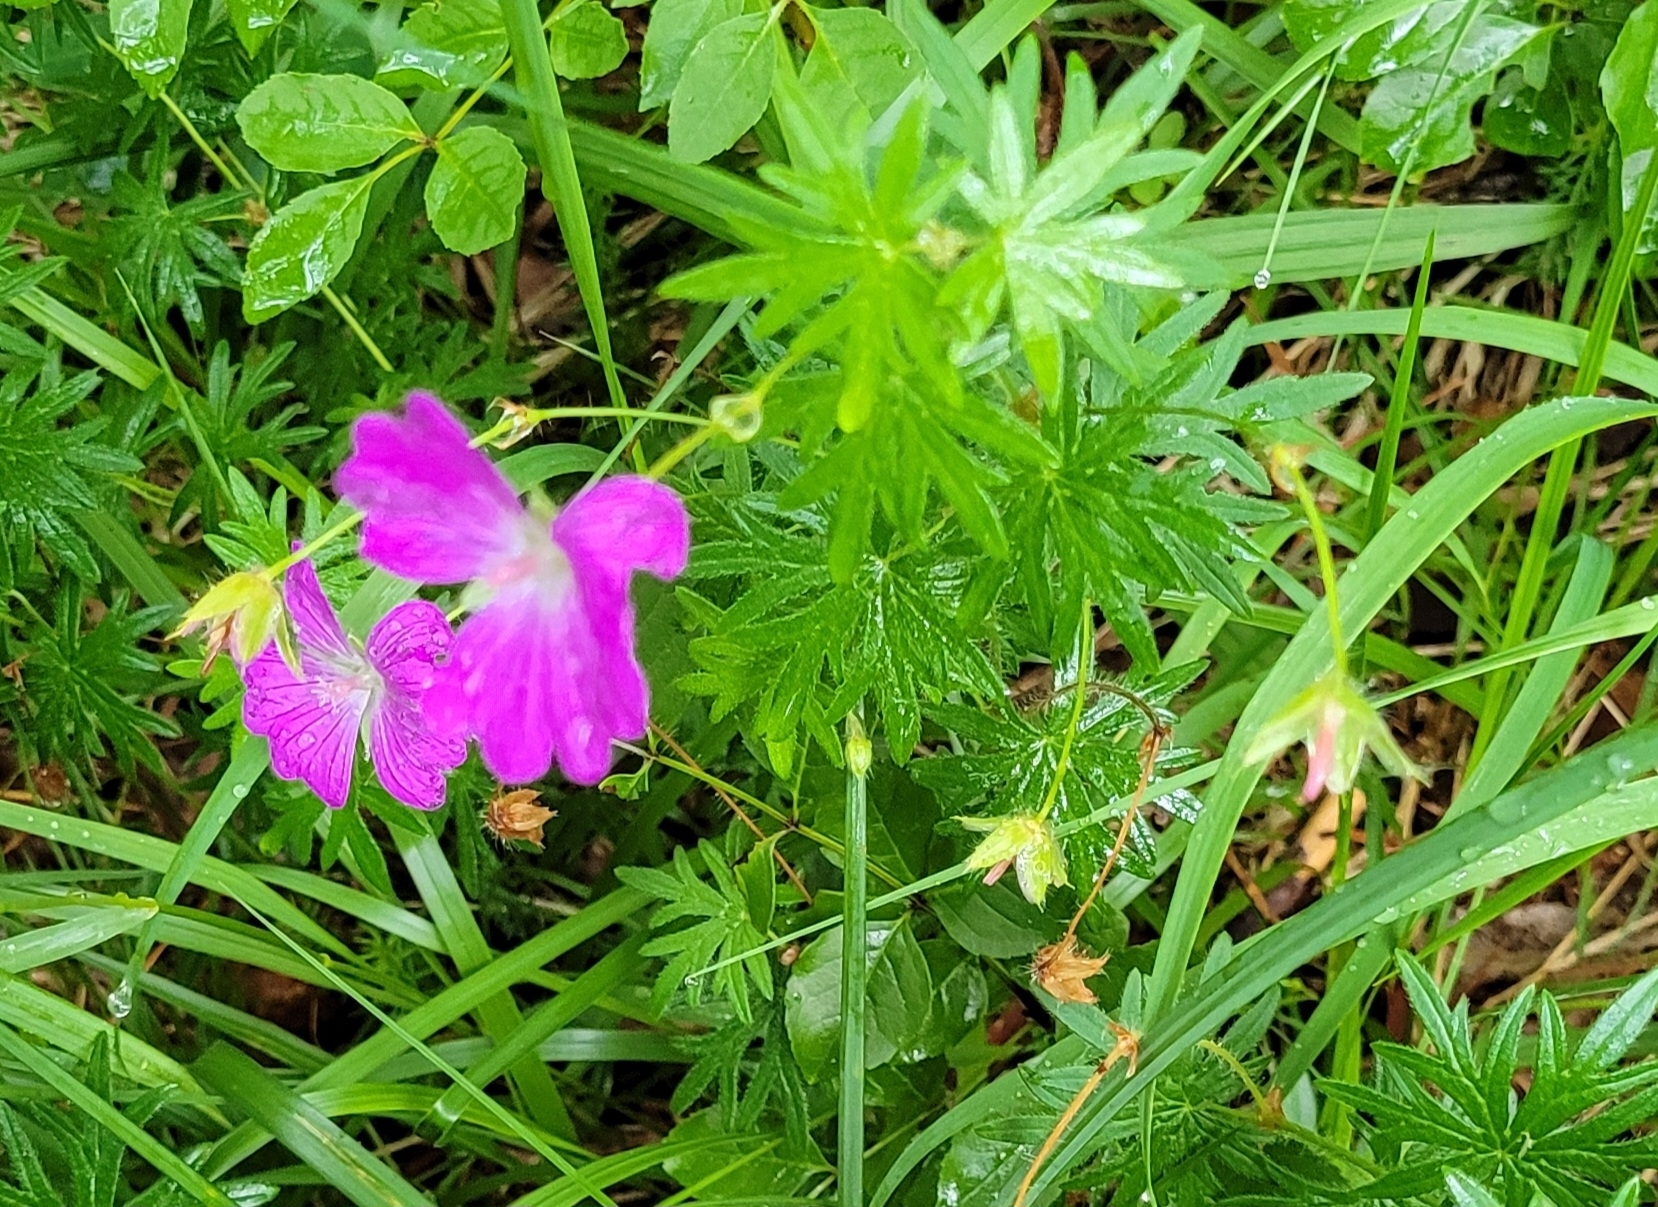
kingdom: Plantae
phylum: Tracheophyta
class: Magnoliopsida
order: Geraniales
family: Geraniaceae
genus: Geranium
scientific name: Geranium sanguineum
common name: Bloody crane's-bill
